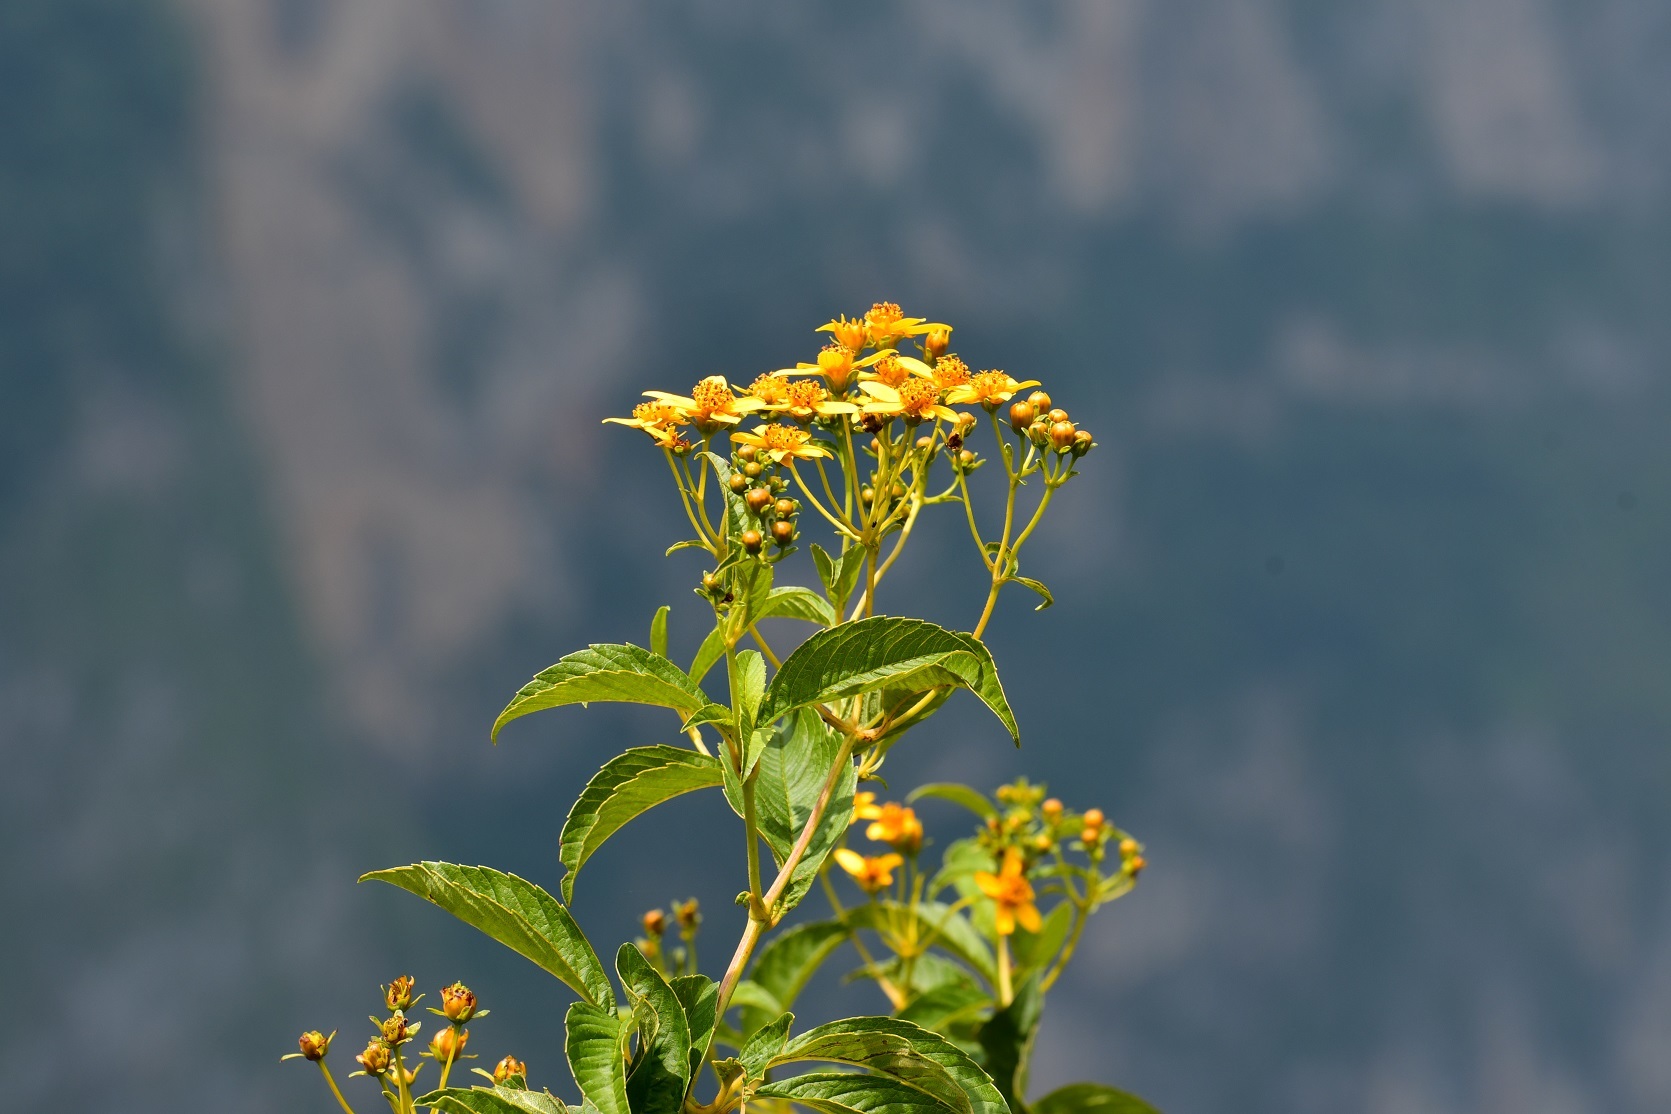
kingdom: Plantae
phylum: Tracheophyta
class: Magnoliopsida
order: Asterales
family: Asteraceae
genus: Electranthera
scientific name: Electranthera mutica
